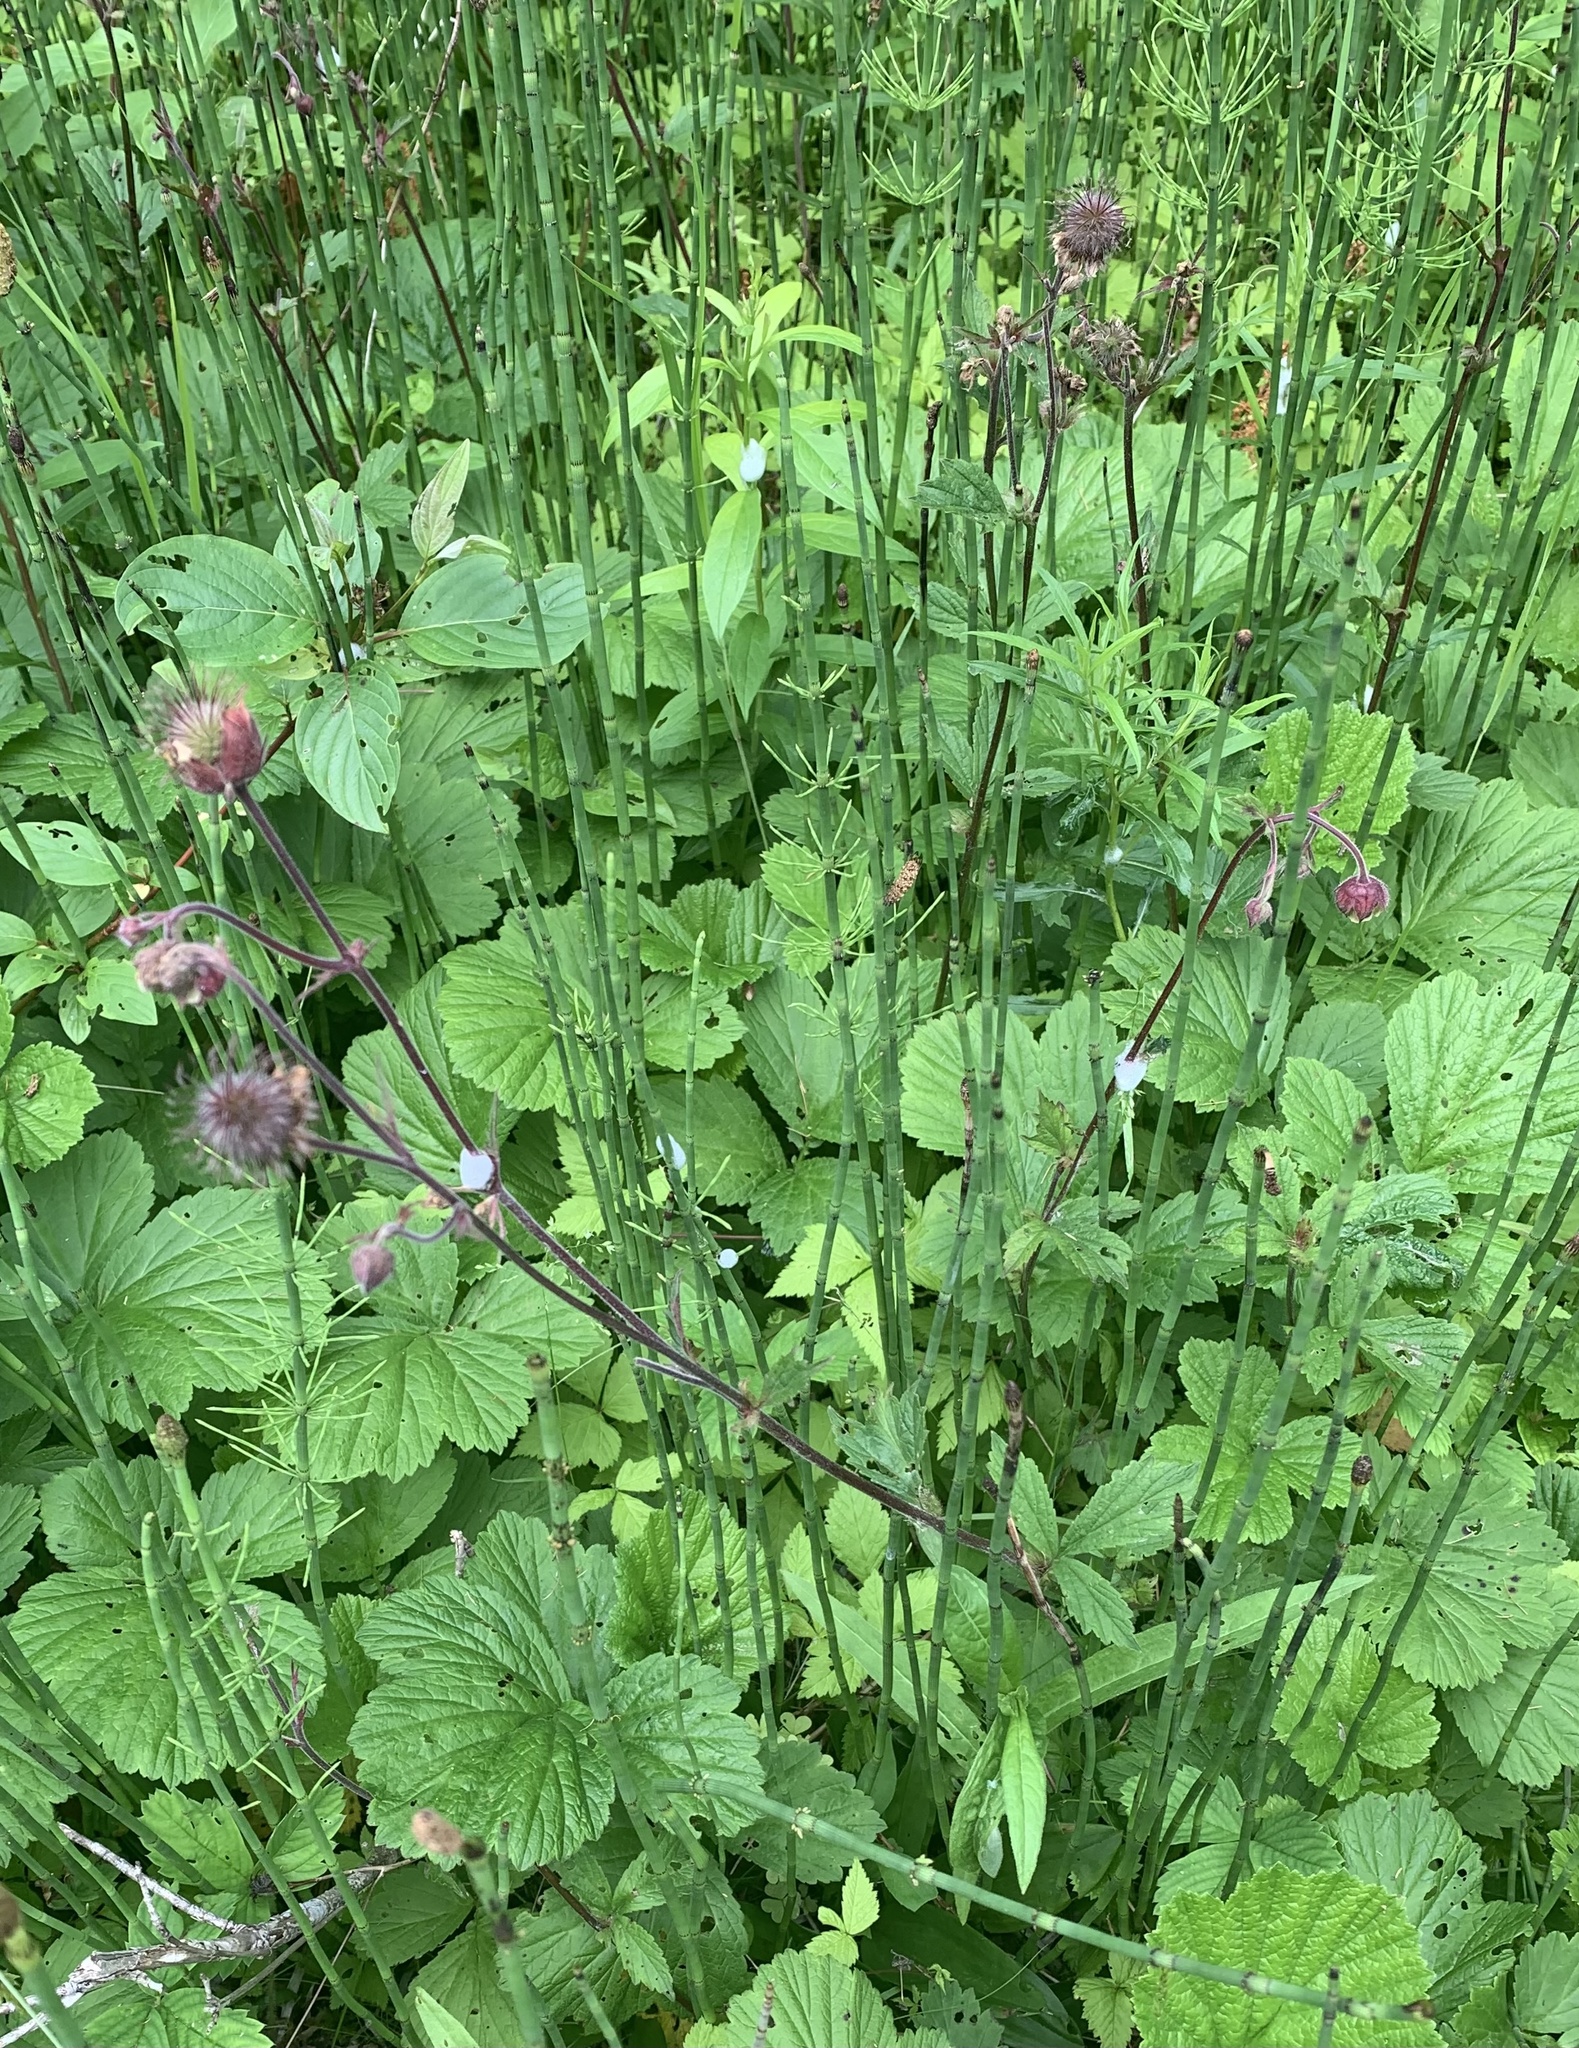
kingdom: Plantae
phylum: Tracheophyta
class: Magnoliopsida
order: Rosales
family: Rosaceae
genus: Geum
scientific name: Geum rivale
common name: Water avens
